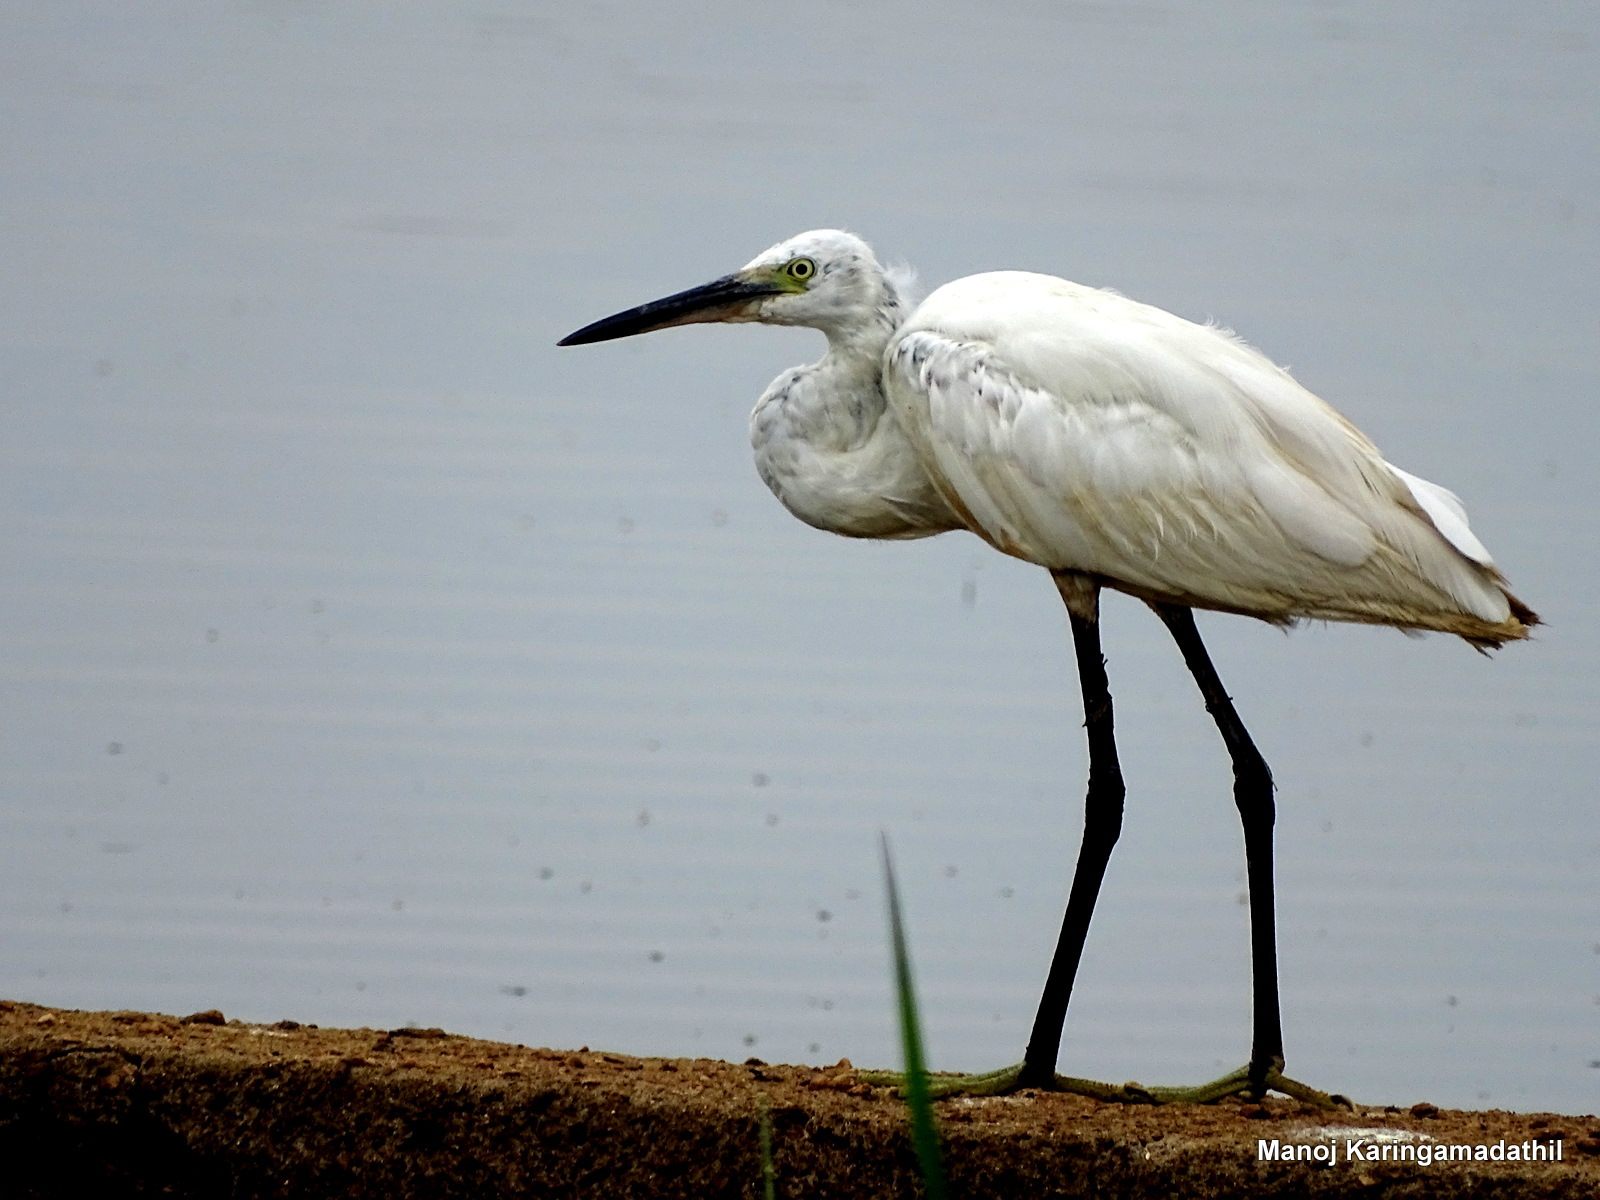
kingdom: Animalia
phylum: Chordata
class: Aves
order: Pelecaniformes
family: Ardeidae
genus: Egretta
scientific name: Egretta garzetta
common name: Little egret
